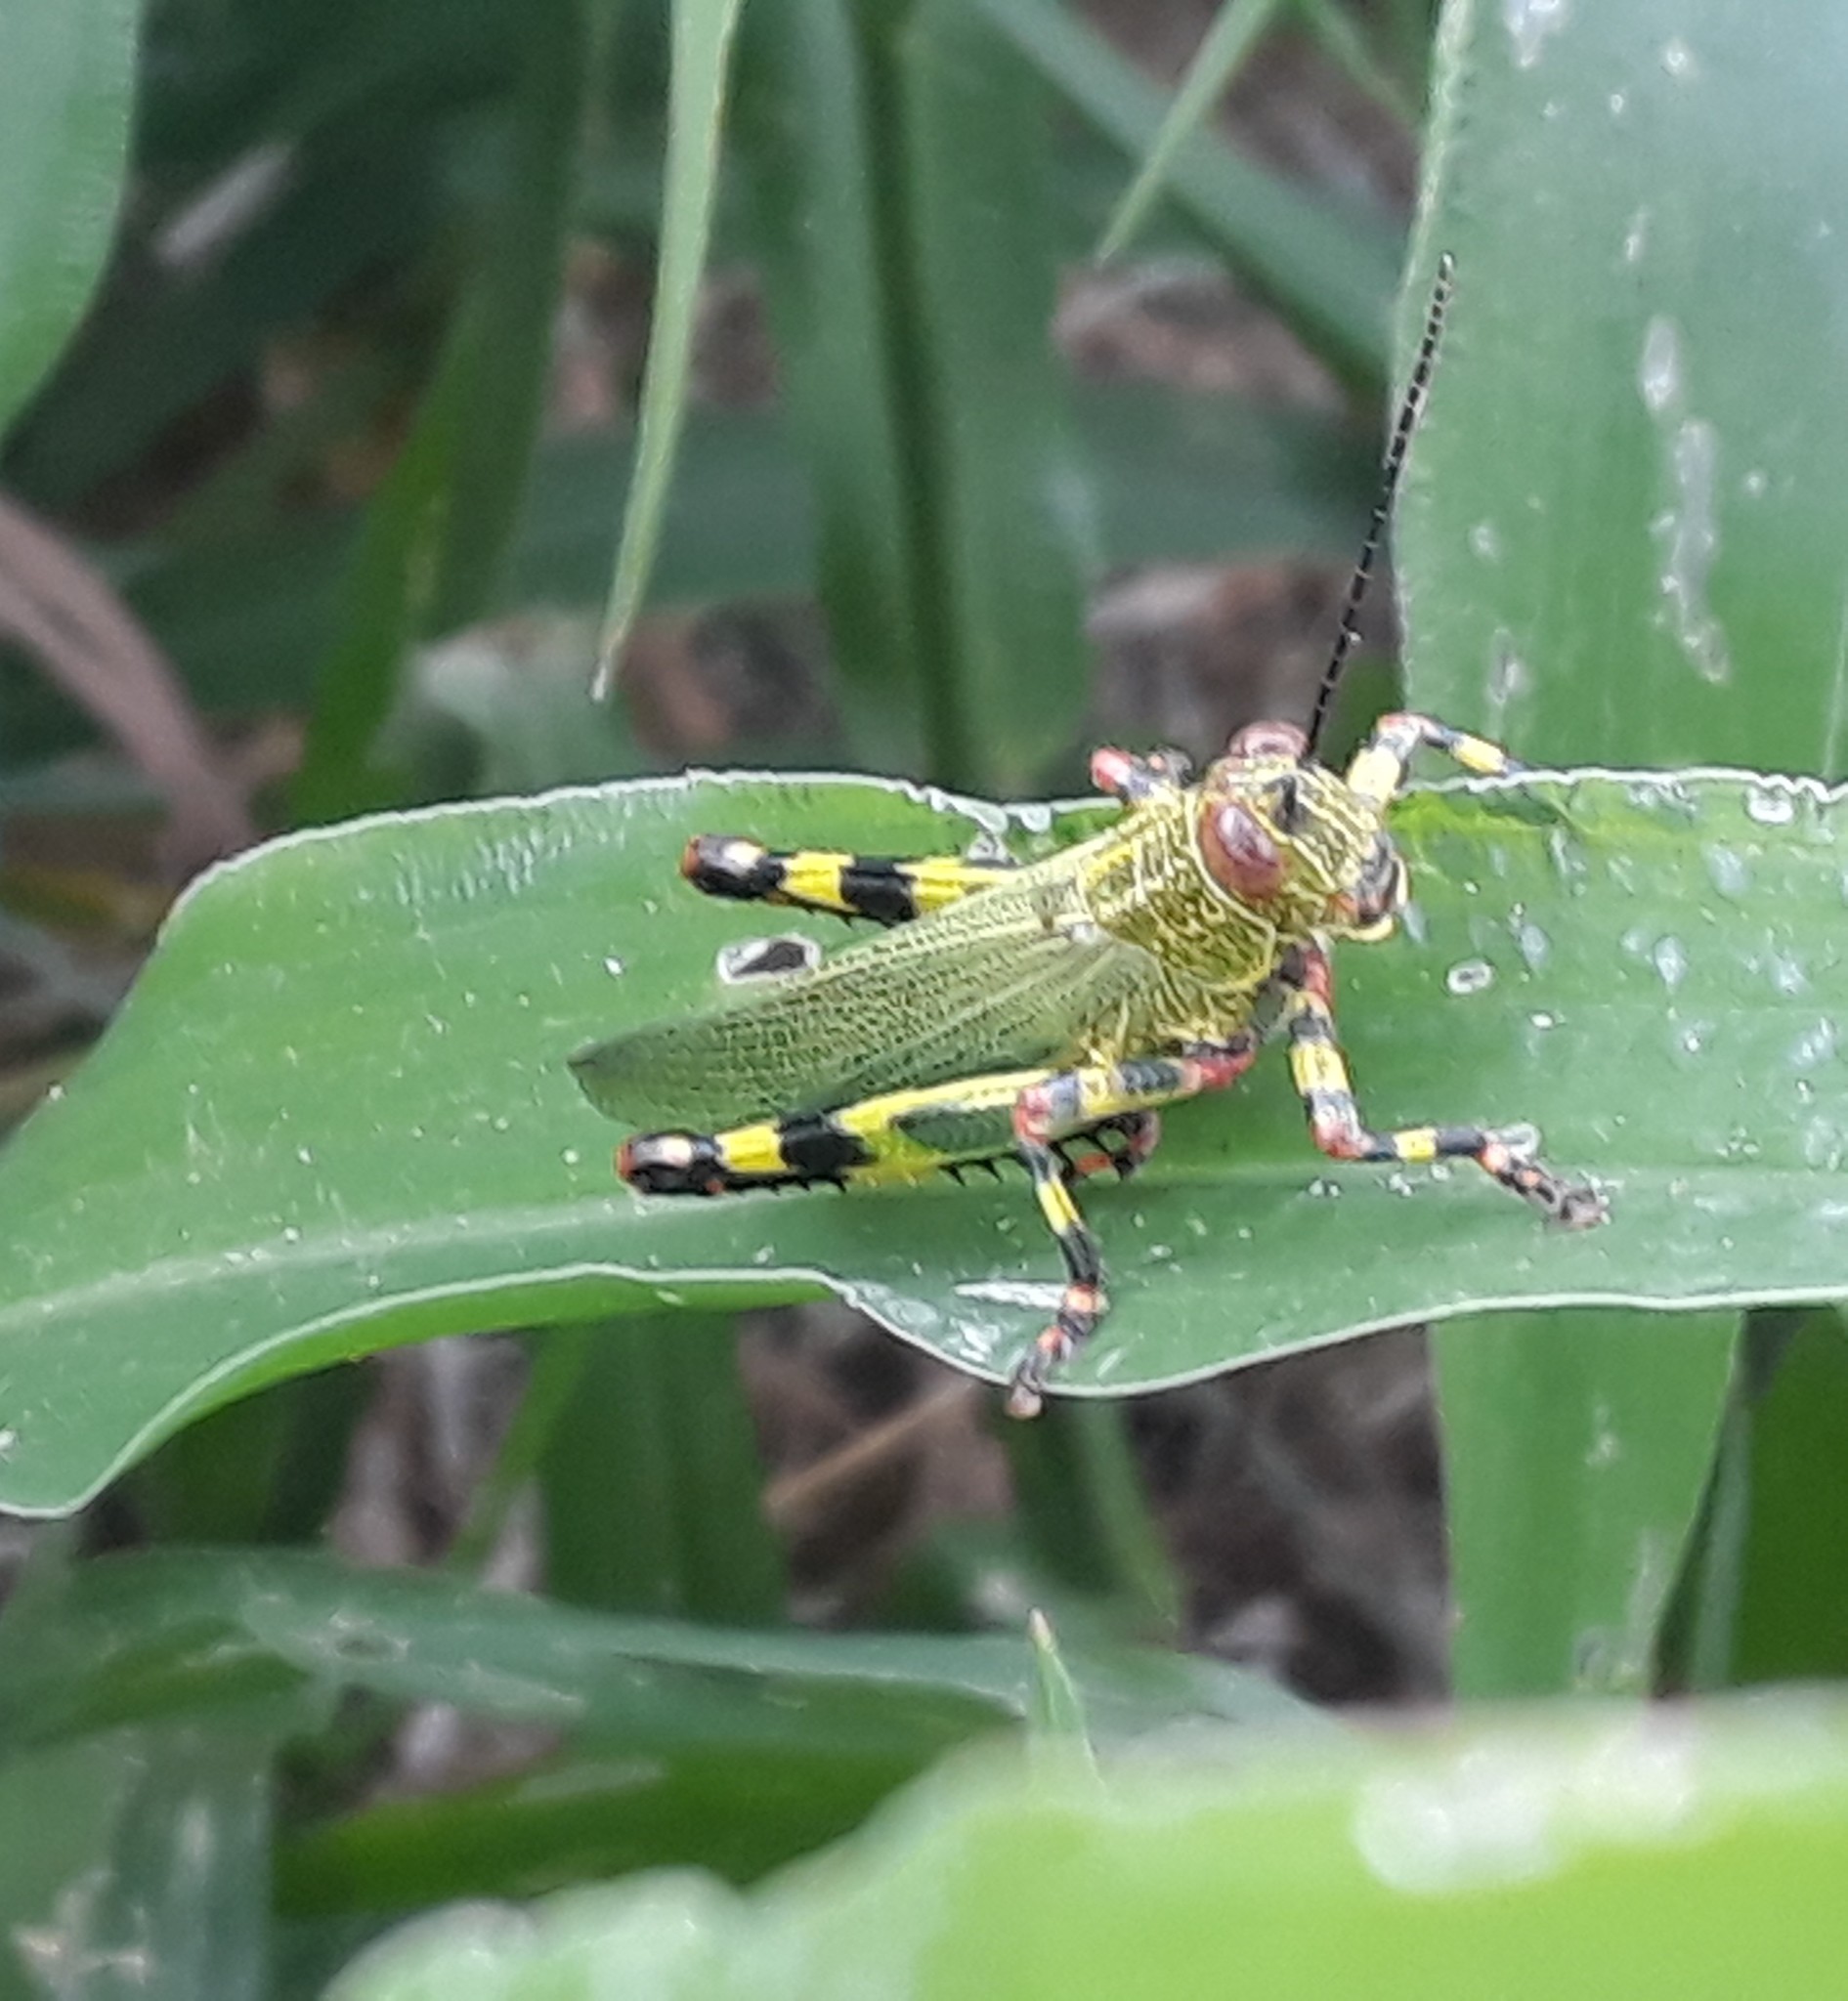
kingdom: Animalia
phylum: Arthropoda
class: Insecta
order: Orthoptera
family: Romaleidae
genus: Zoniopoda
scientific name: Zoniopoda tarsata
